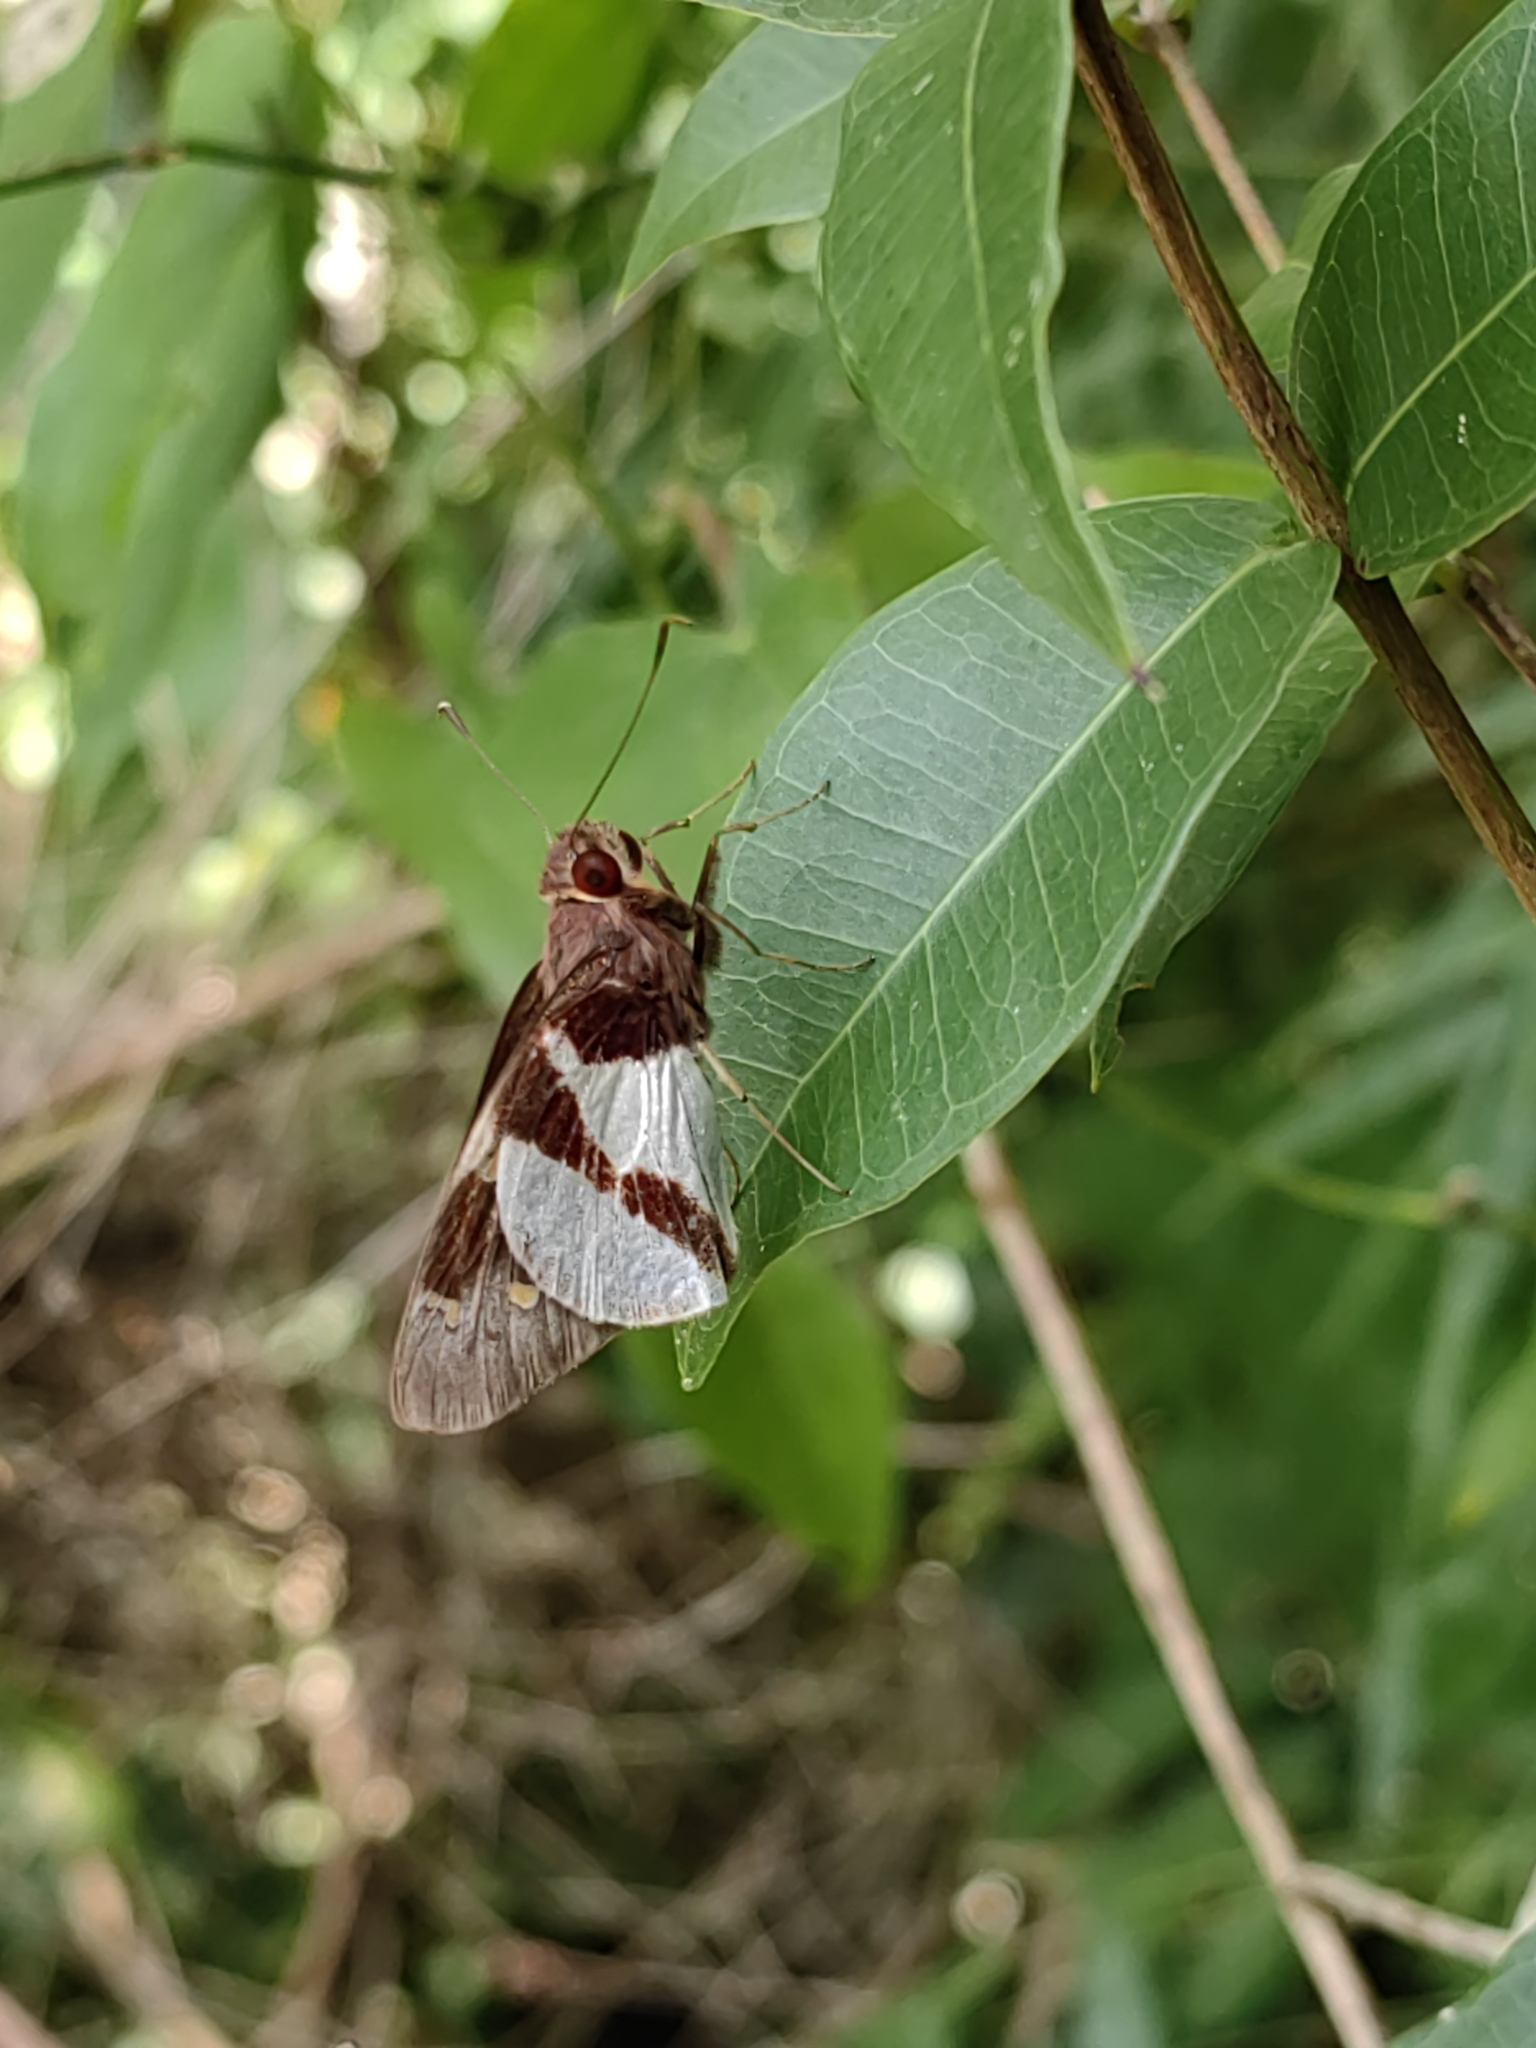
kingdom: Animalia
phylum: Arthropoda
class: Insecta
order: Lepidoptera
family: Hesperiidae
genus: Lycas
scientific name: Lycas
